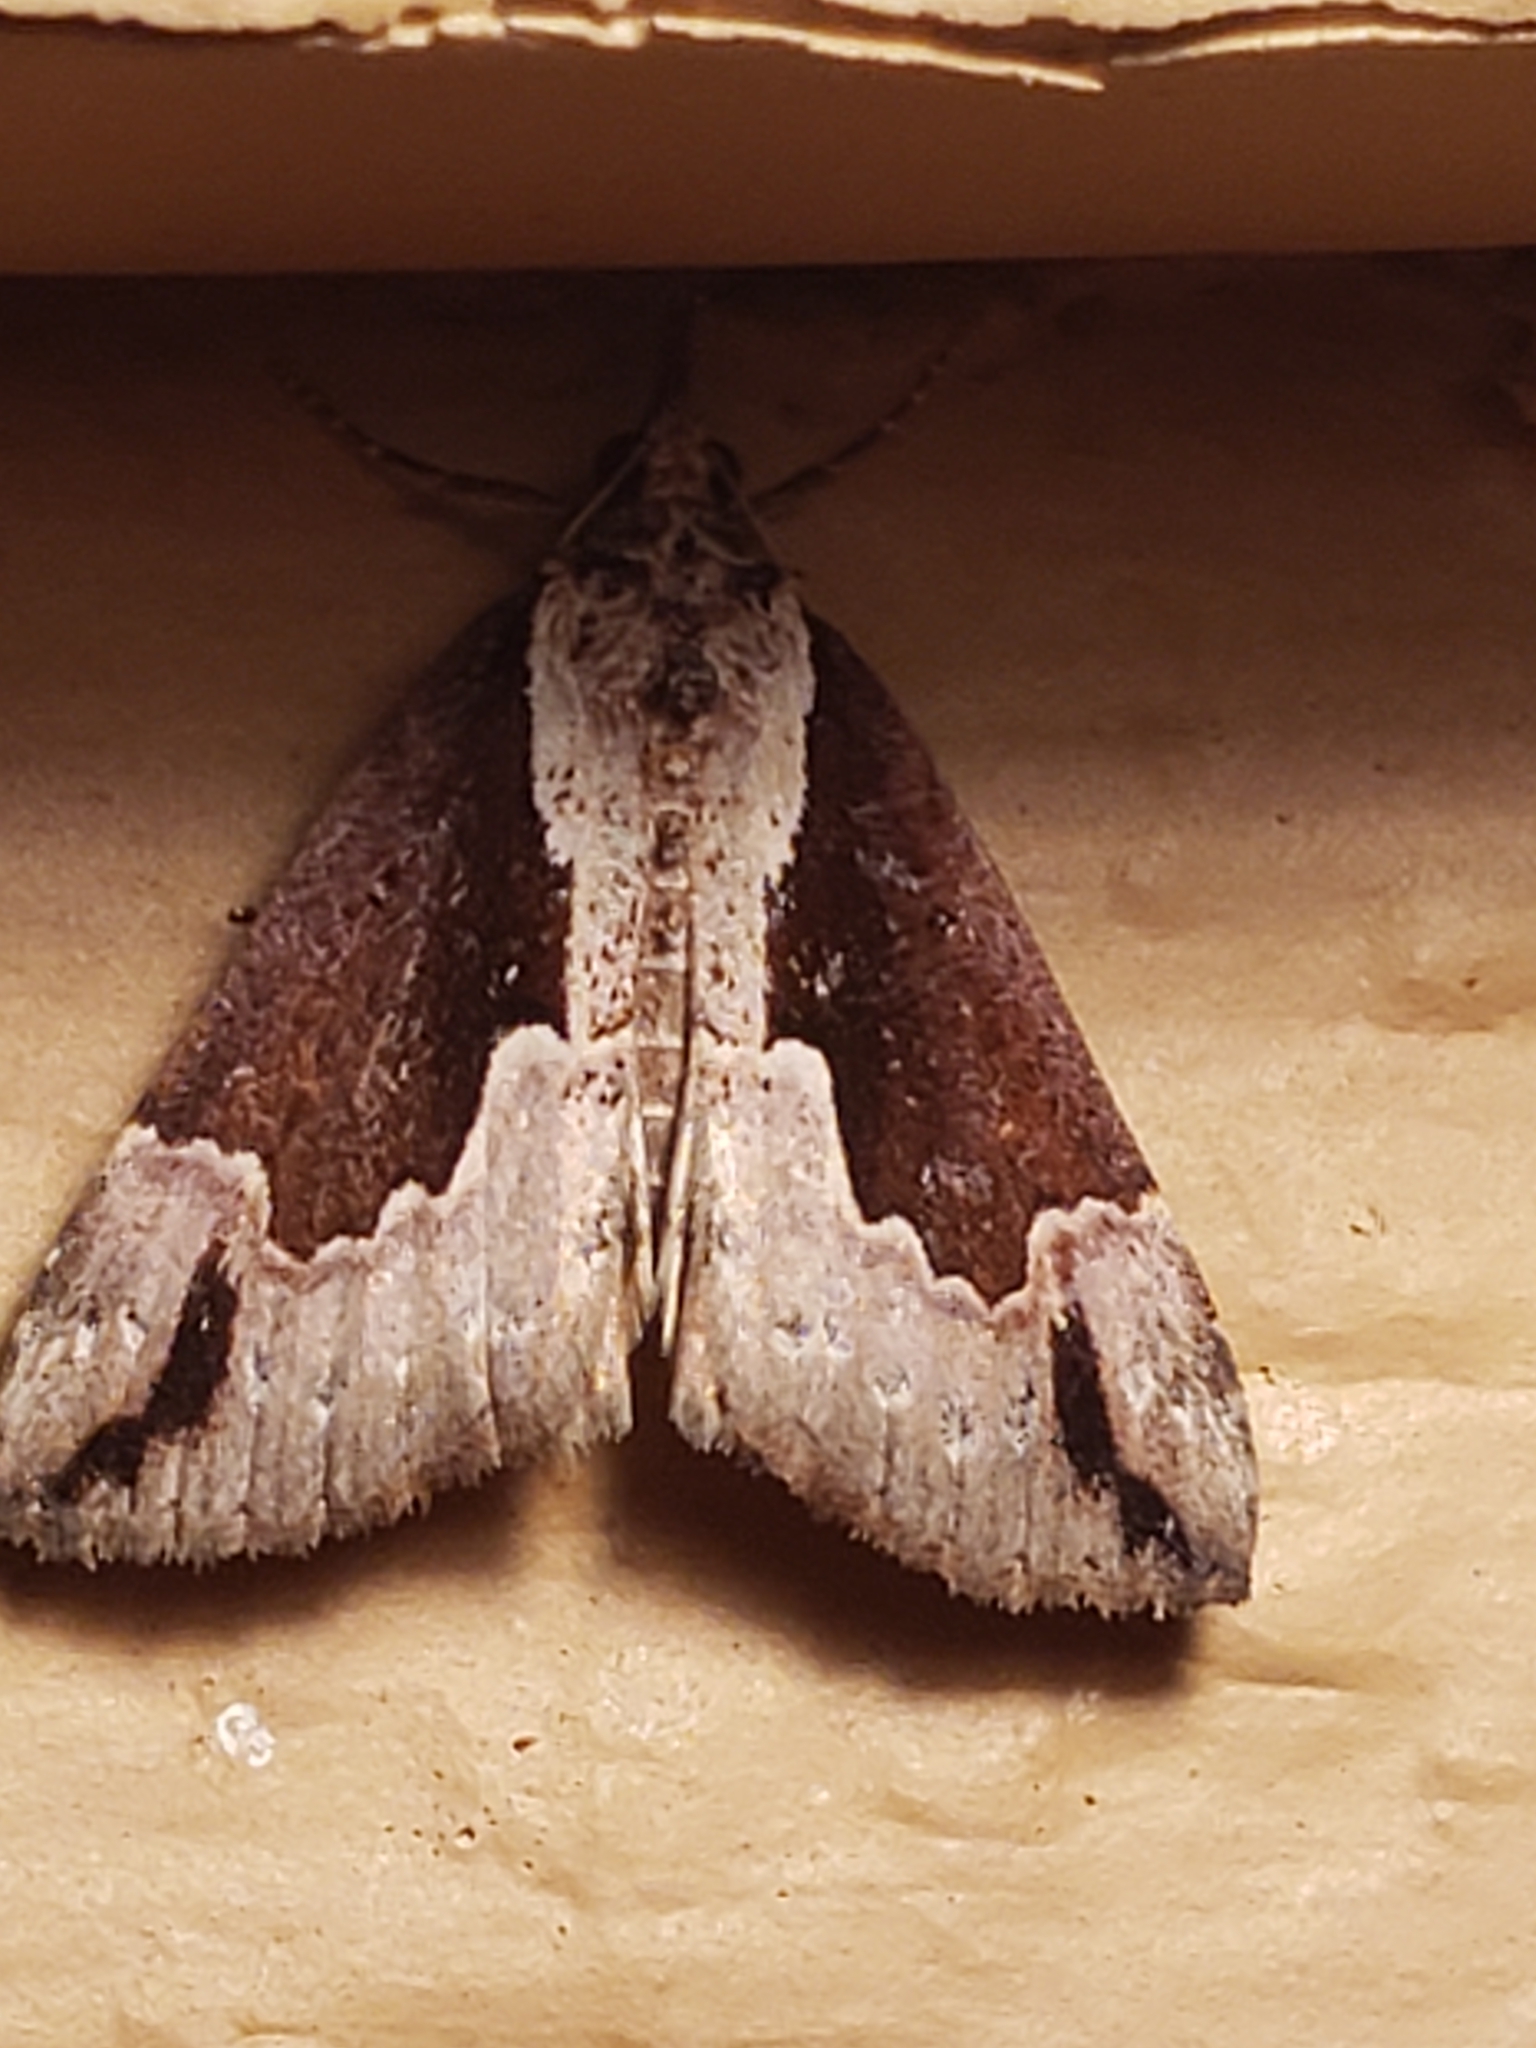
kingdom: Animalia
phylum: Arthropoda
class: Insecta
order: Lepidoptera
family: Erebidae
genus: Hypena
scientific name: Hypena baltimoralis
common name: Baltimore snout
